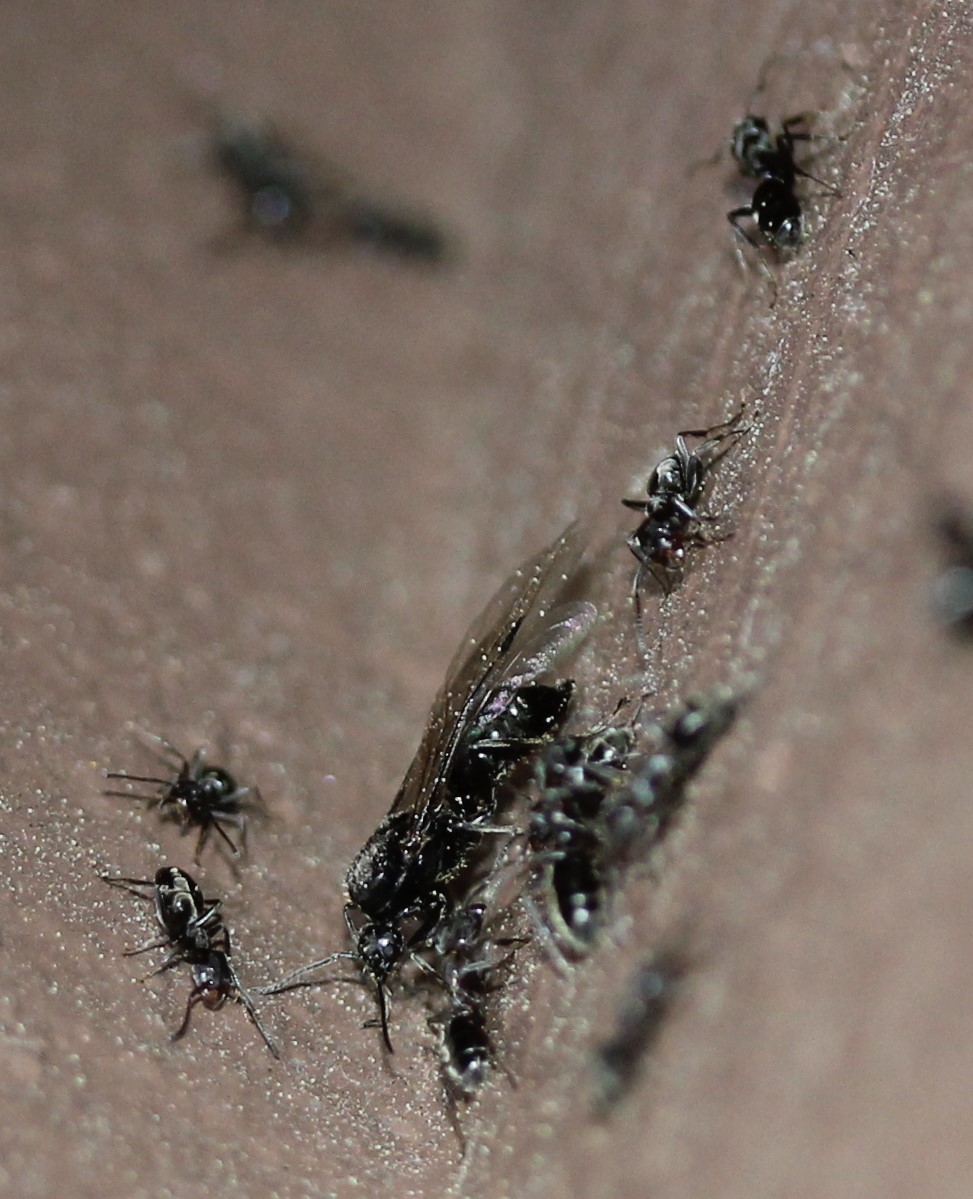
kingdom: Animalia
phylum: Arthropoda
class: Insecta
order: Hymenoptera
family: Formicidae
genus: Liometopum
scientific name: Liometopum luctuosum
